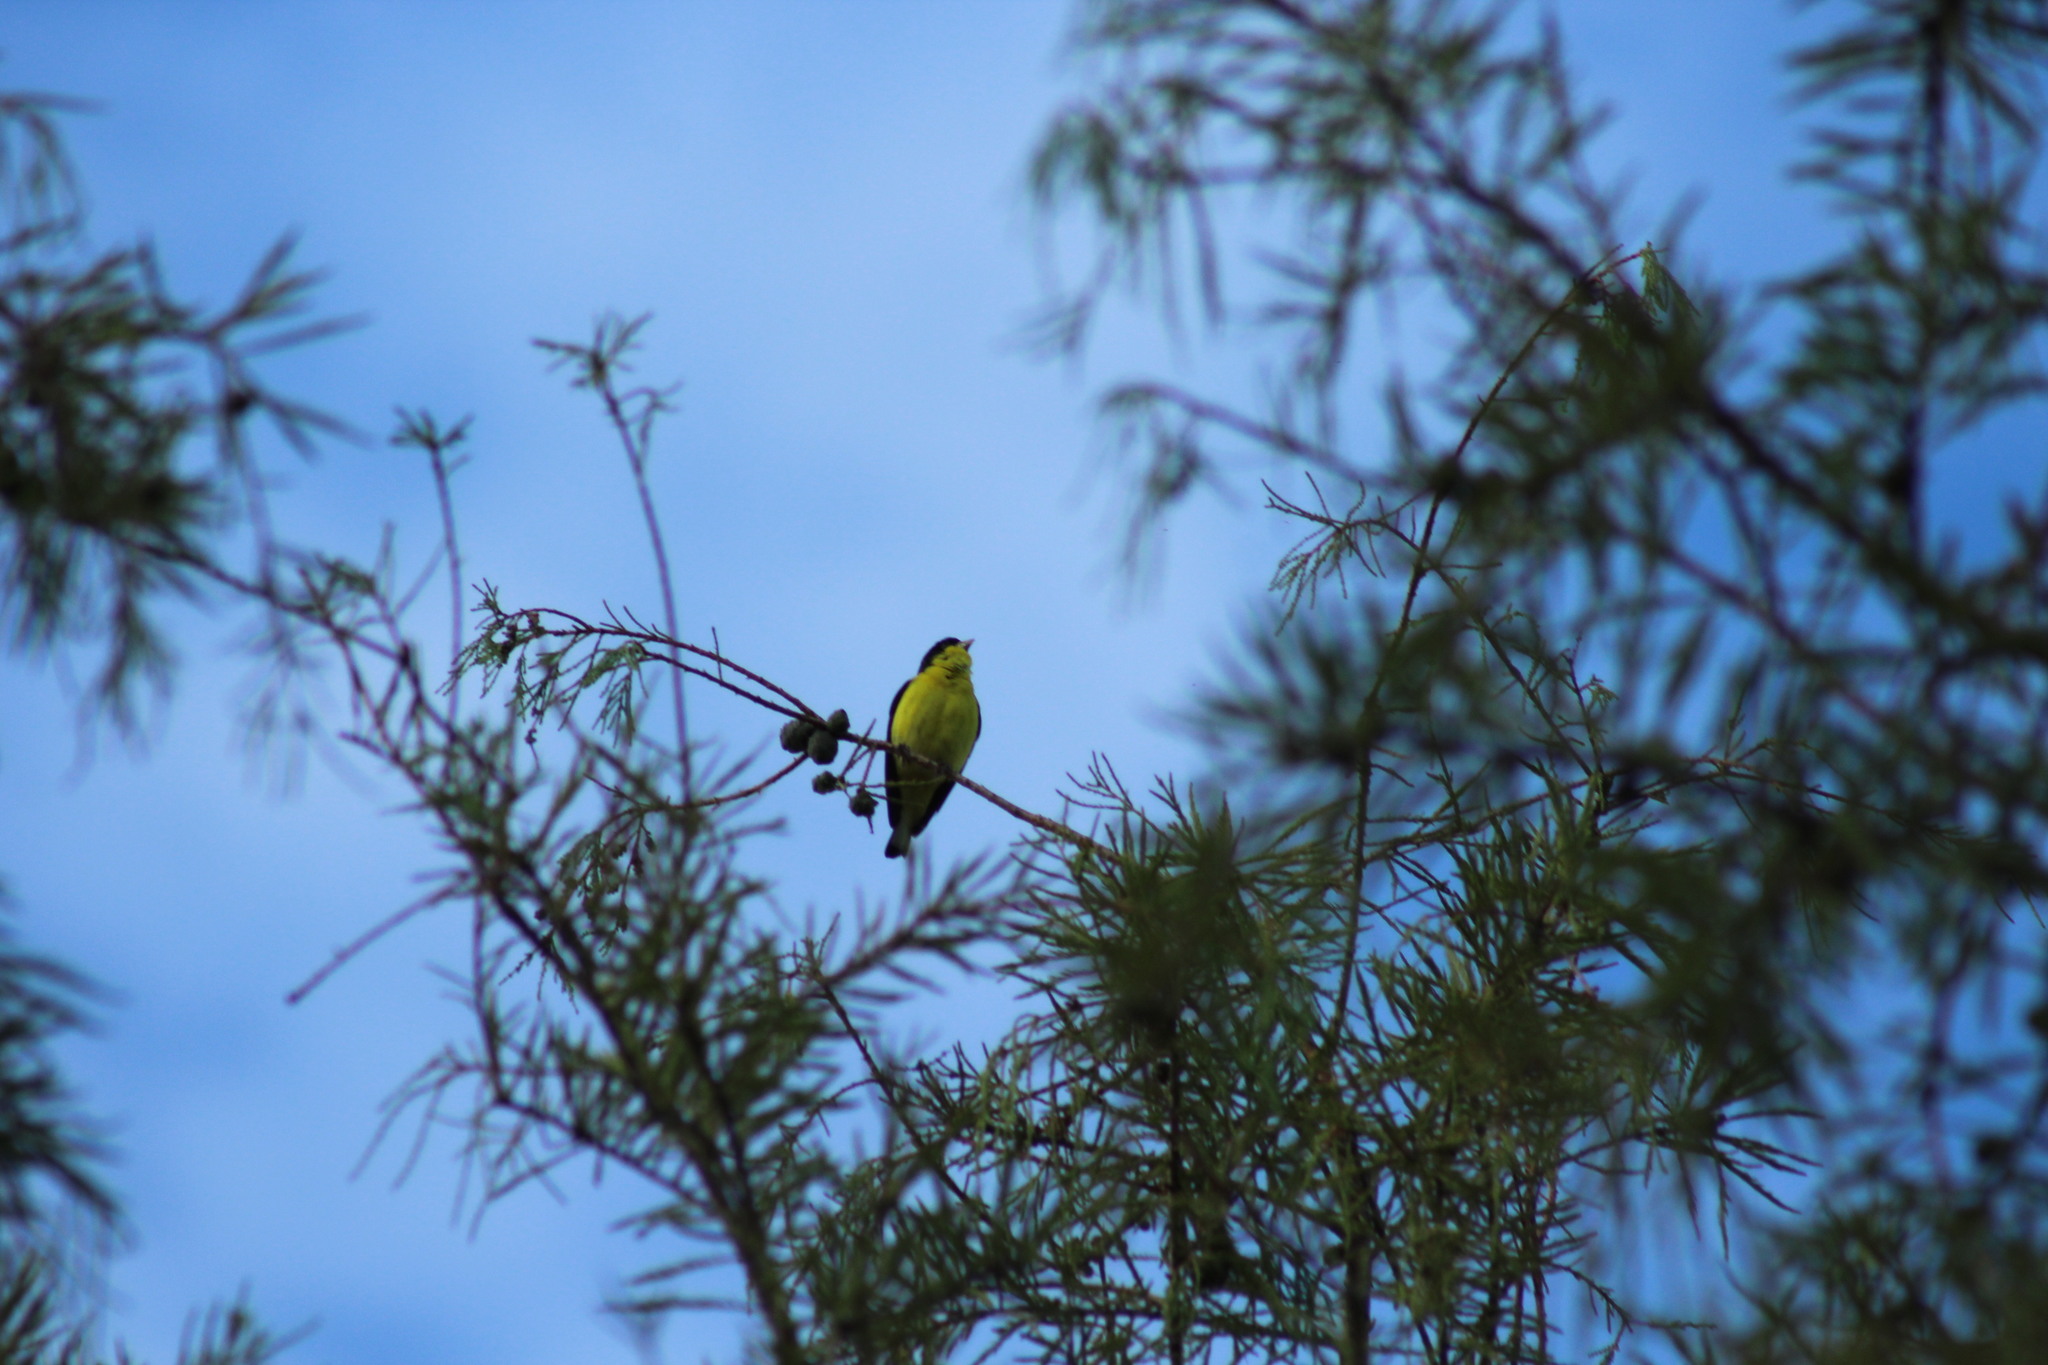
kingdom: Animalia
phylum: Chordata
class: Aves
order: Passeriformes
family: Fringillidae
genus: Spinus
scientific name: Spinus psaltria
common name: Lesser goldfinch
